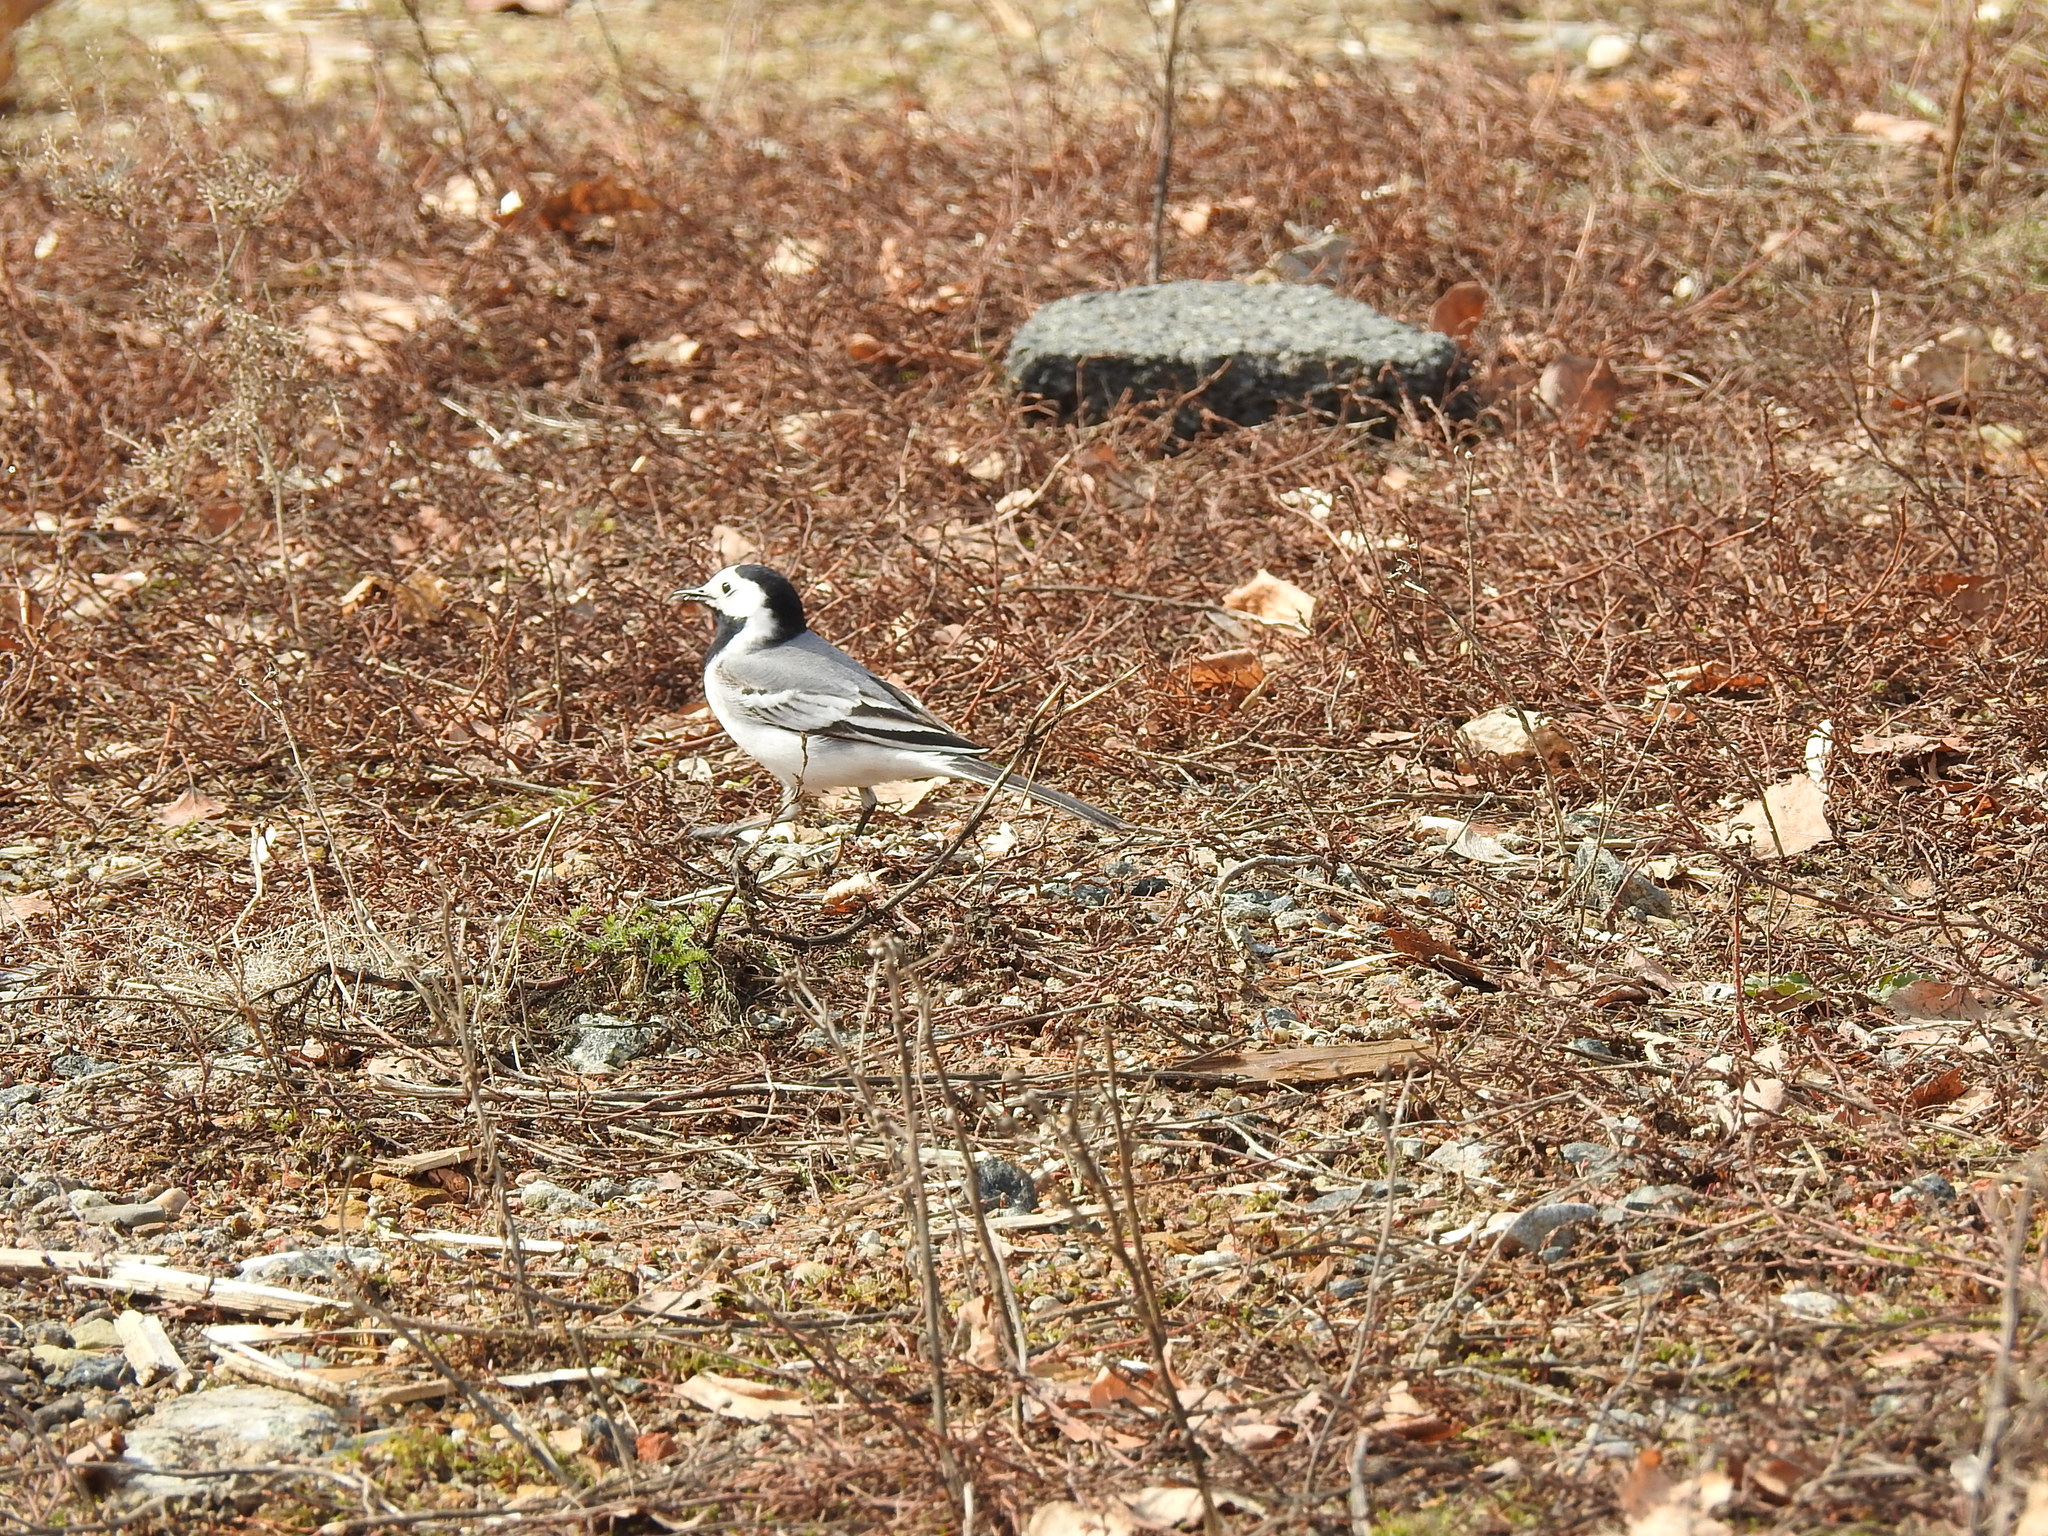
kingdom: Animalia
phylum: Chordata
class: Aves
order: Passeriformes
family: Motacillidae
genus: Motacilla
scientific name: Motacilla alba
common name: White wagtail
